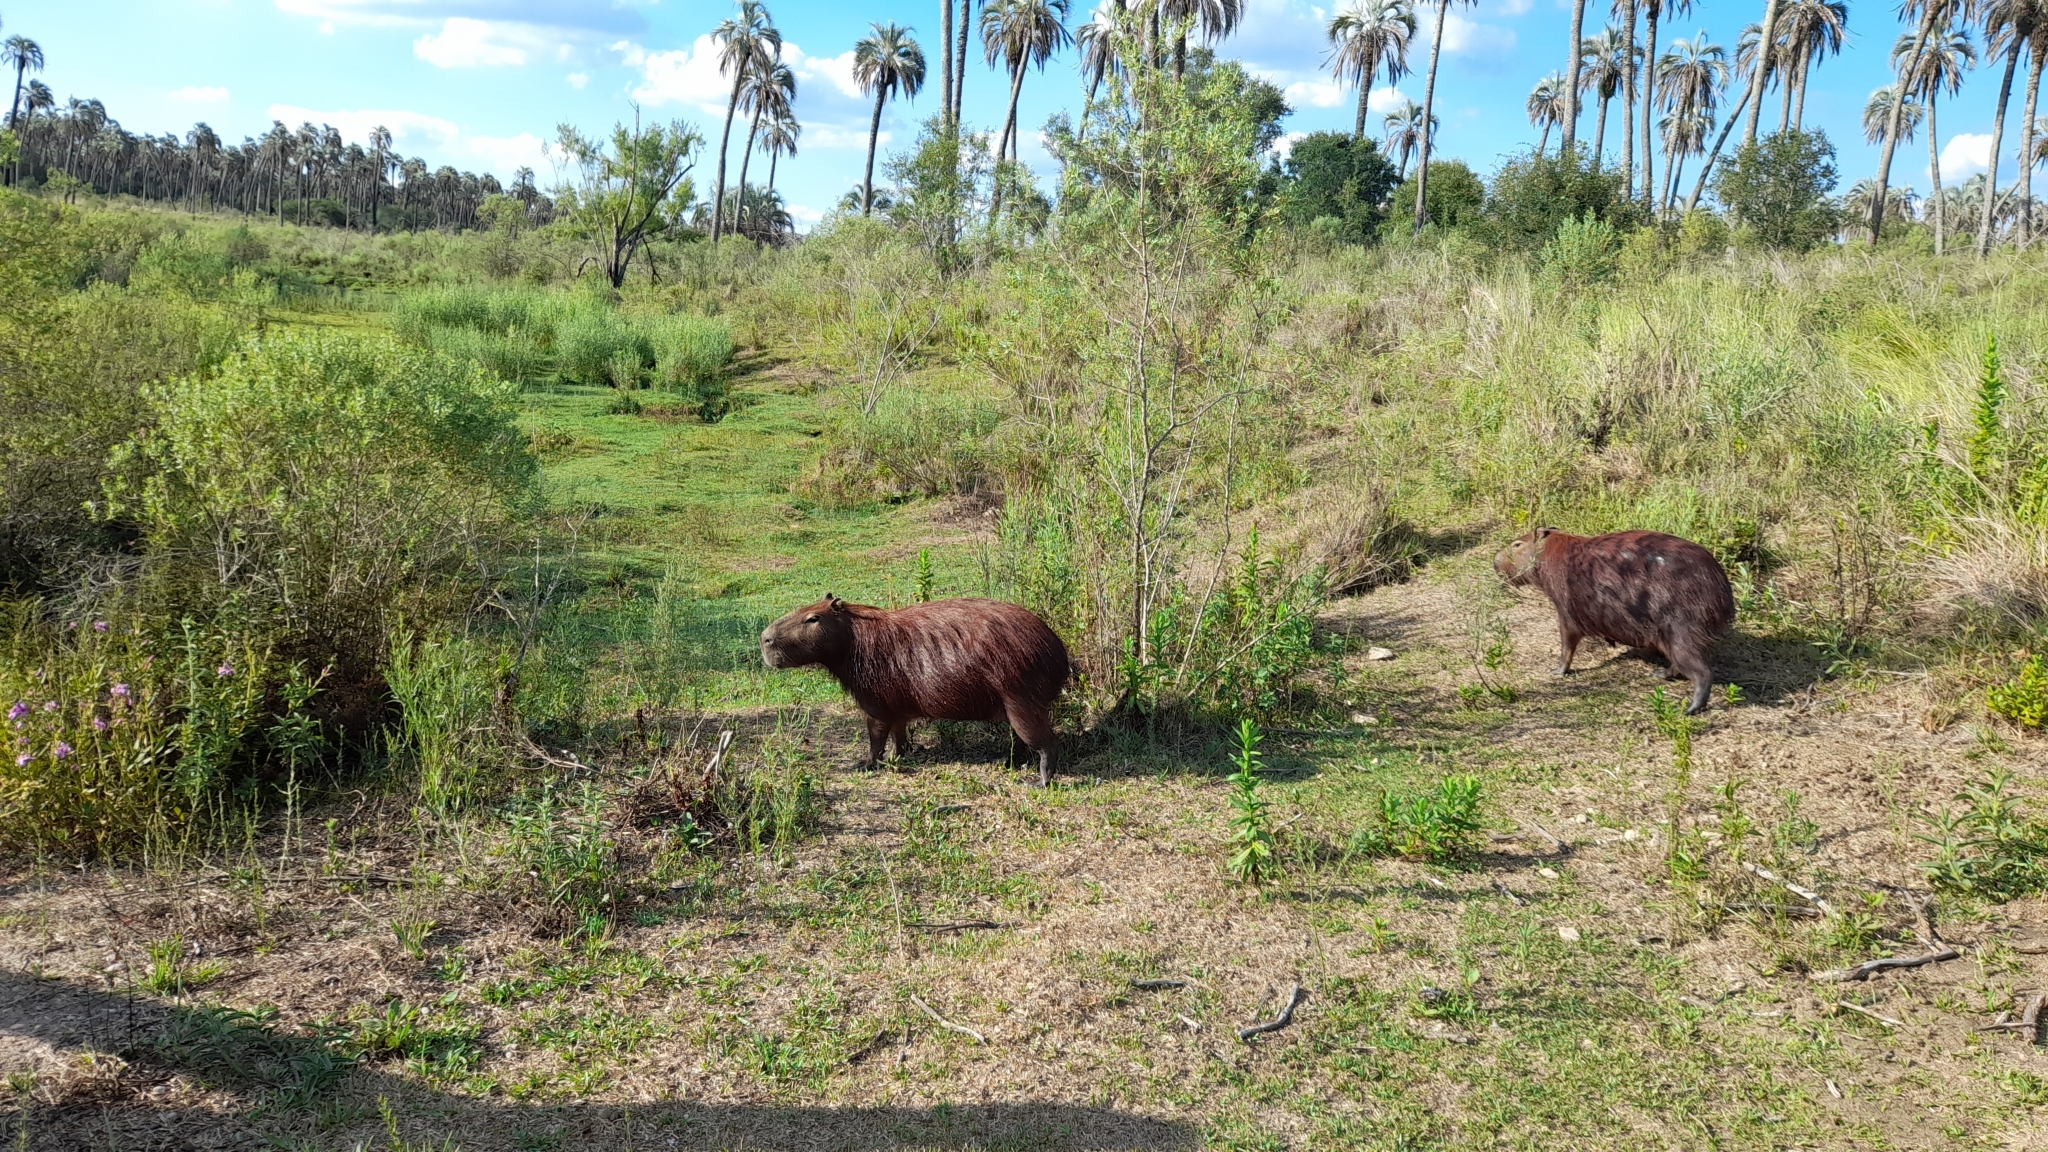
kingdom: Animalia
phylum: Chordata
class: Mammalia
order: Rodentia
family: Caviidae
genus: Hydrochoerus
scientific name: Hydrochoerus hydrochaeris
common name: Capybara
